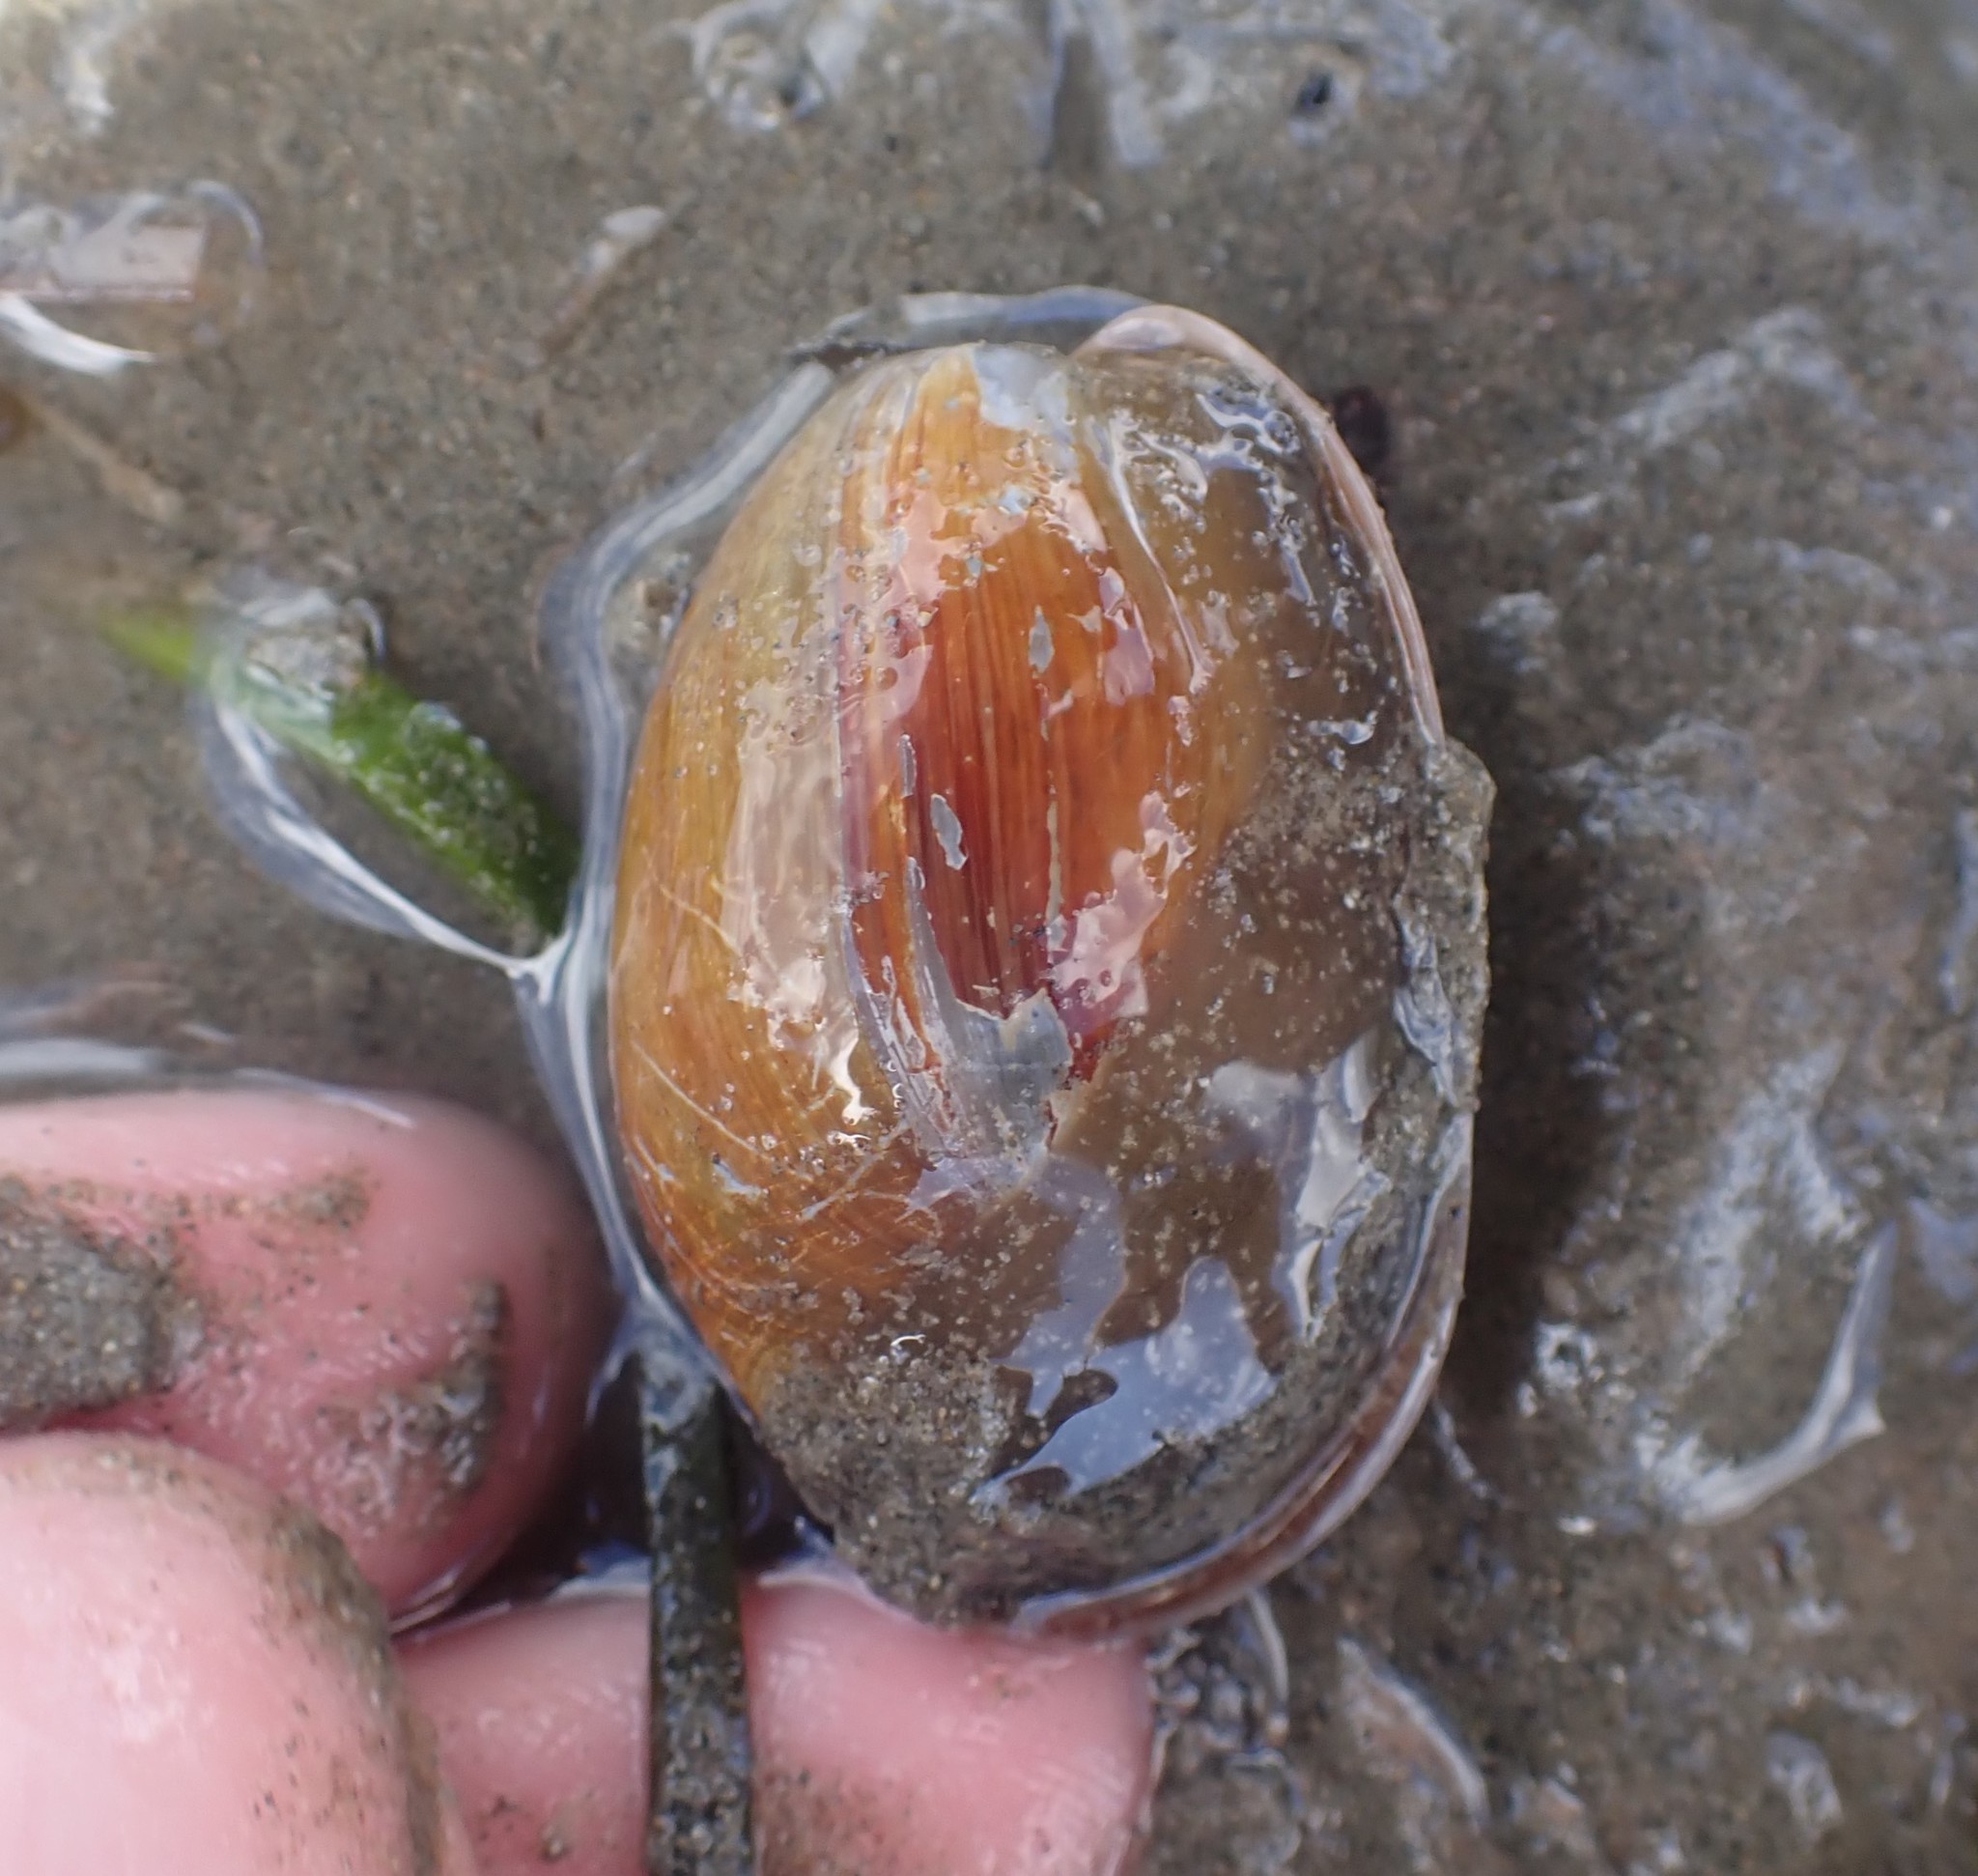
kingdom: Animalia
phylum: Mollusca
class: Gastropoda
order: Cephalaspidea
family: Bullidae
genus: Bulla
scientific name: Bulla quoyii
